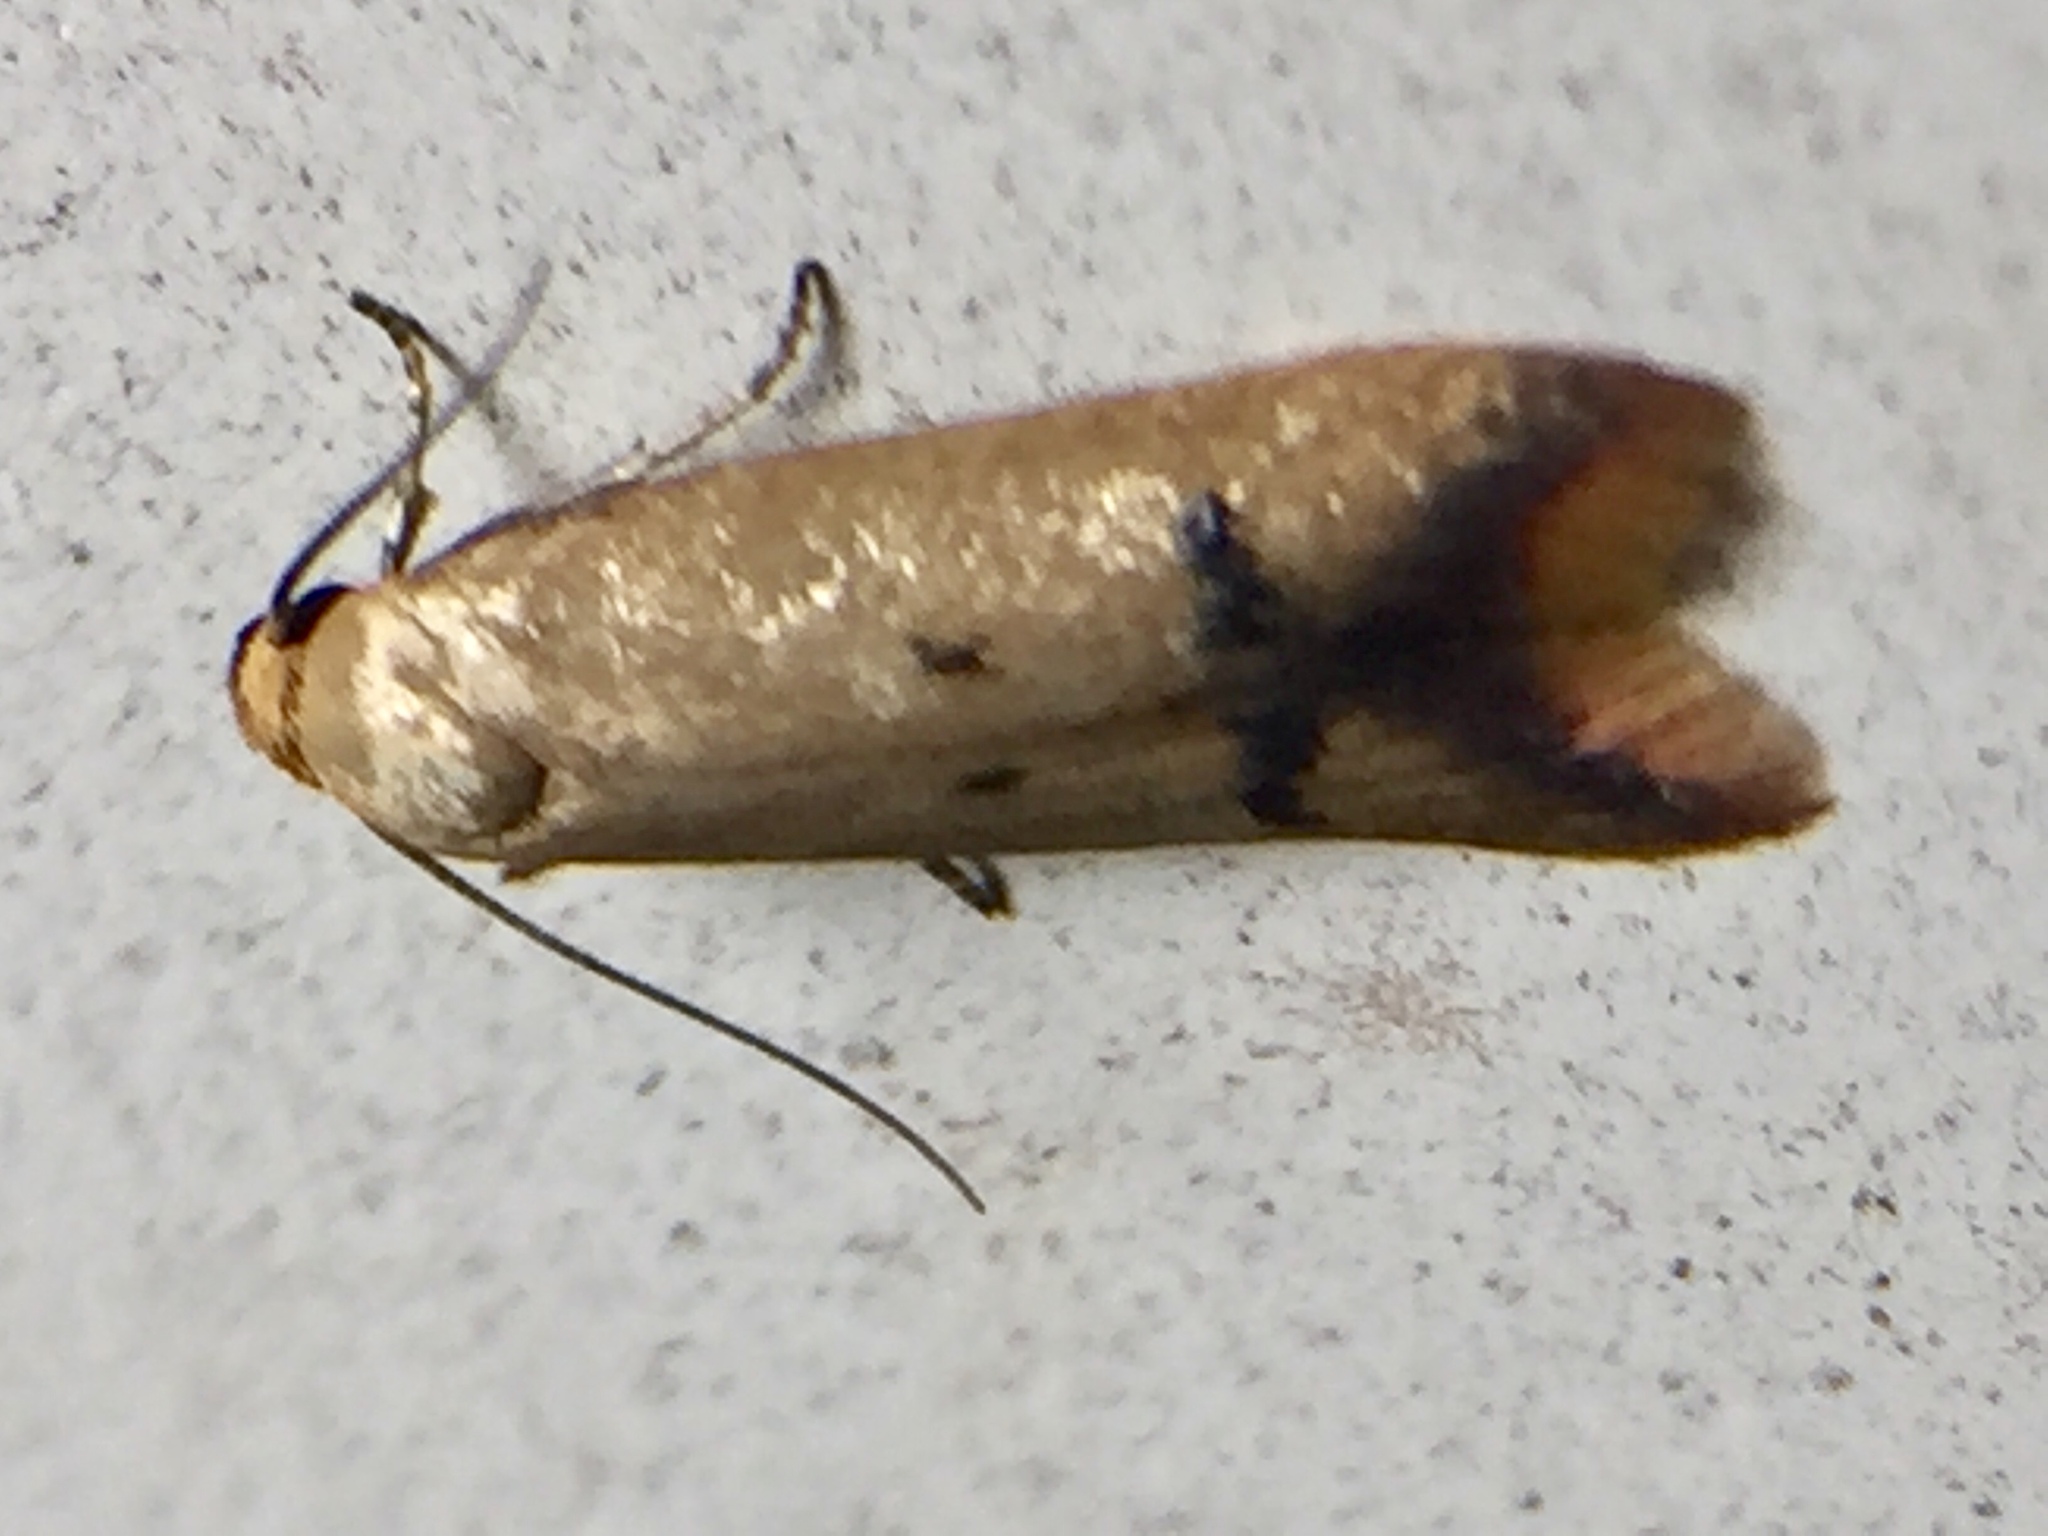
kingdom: Animalia
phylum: Arthropoda
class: Insecta
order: Lepidoptera
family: Oecophoridae
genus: Tachystola
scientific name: Tachystola hemisema
